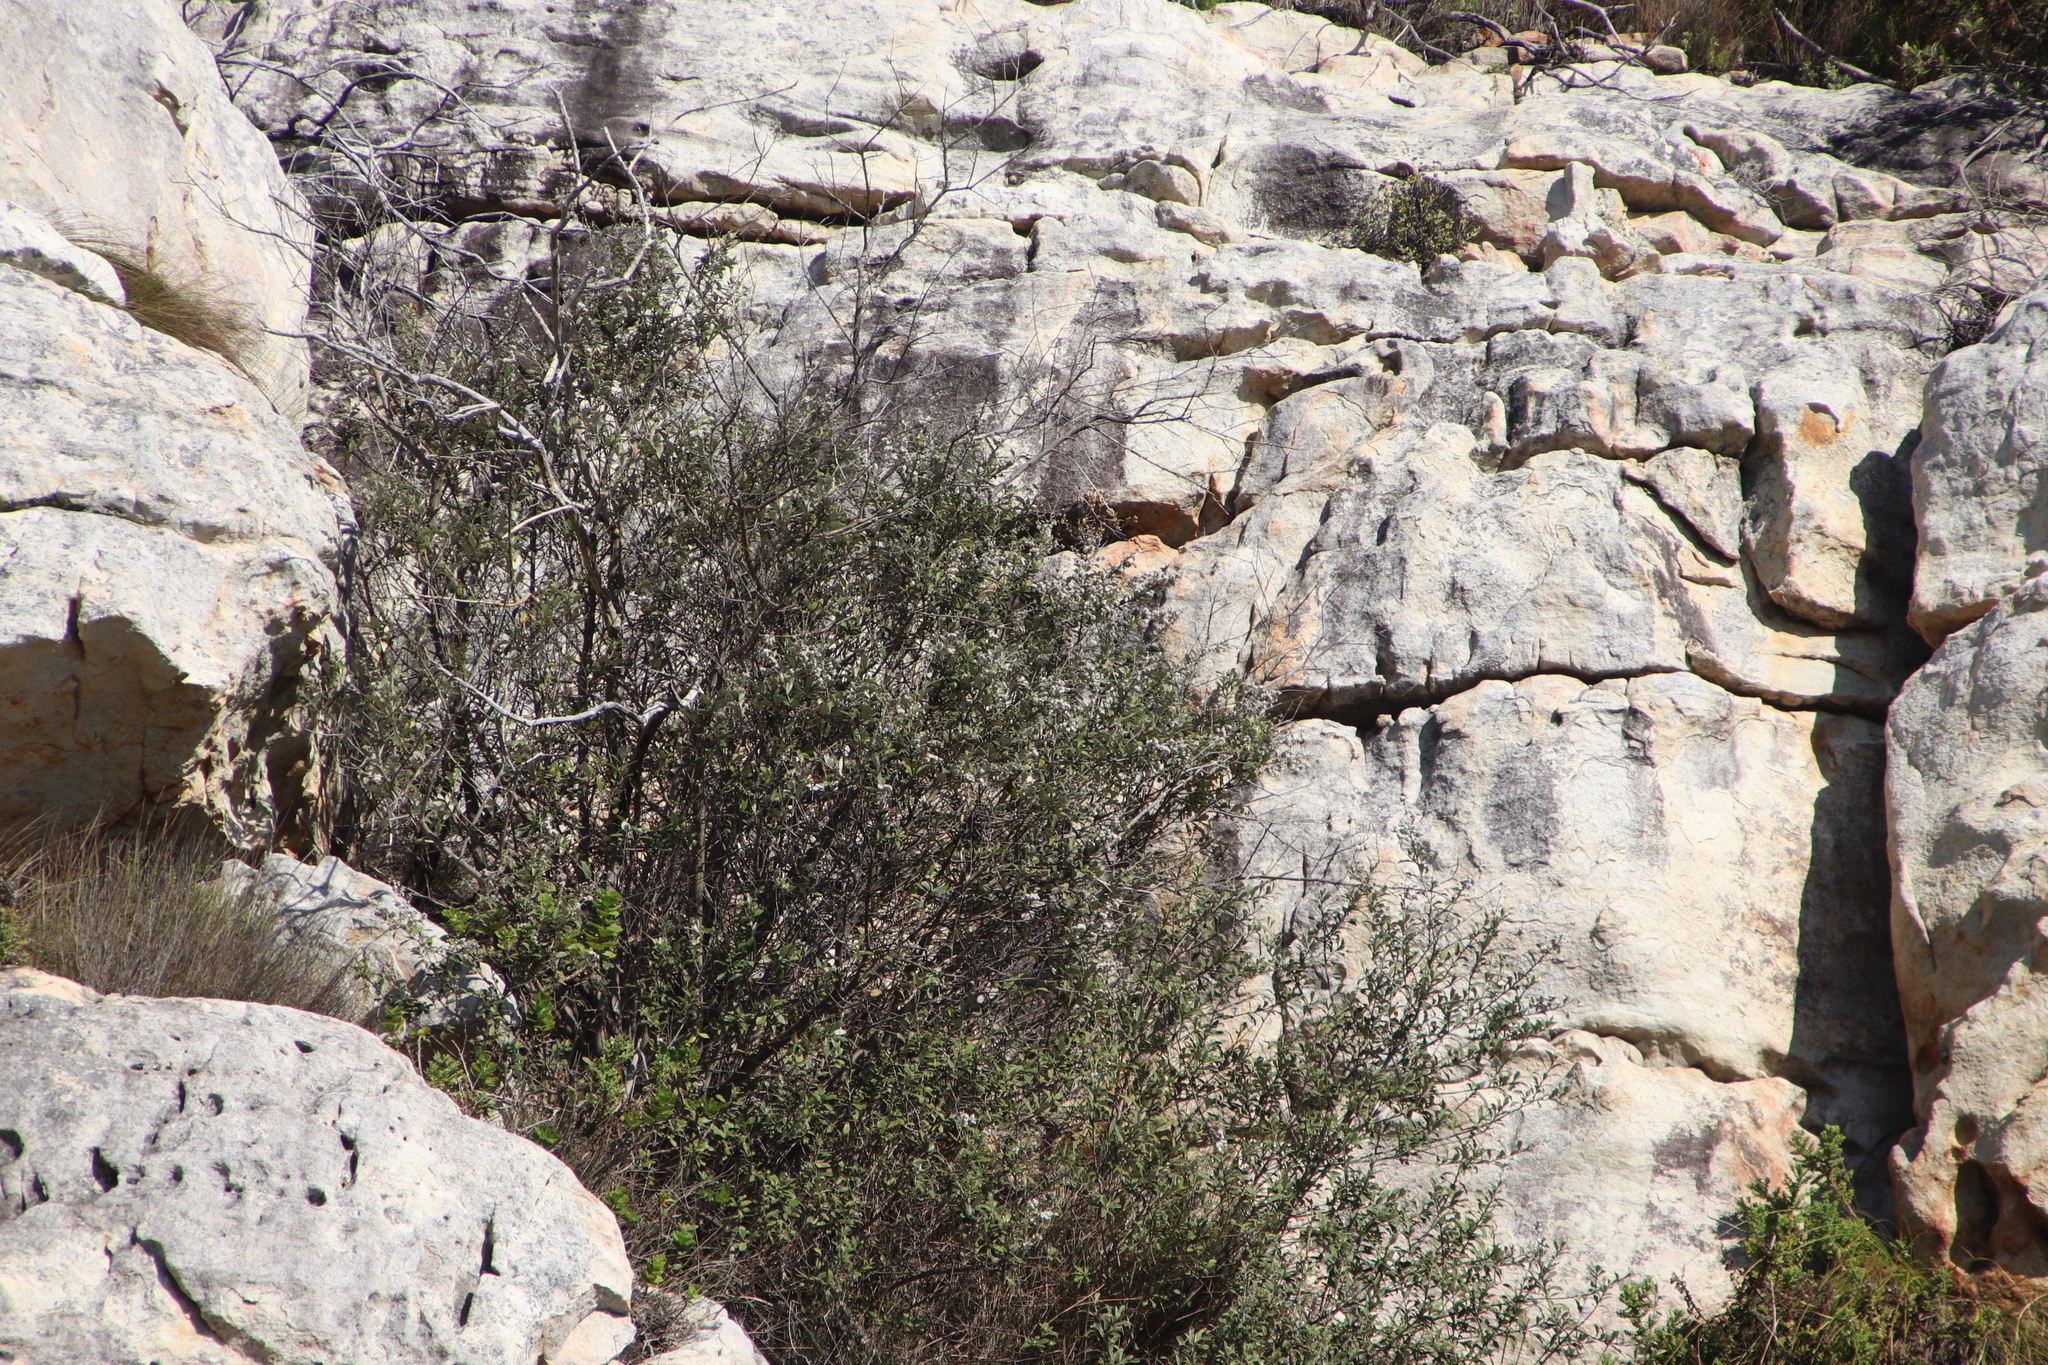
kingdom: Plantae
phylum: Tracheophyta
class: Magnoliopsida
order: Asterales
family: Asteraceae
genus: Tarchonanthus
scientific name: Tarchonanthus littoralis
